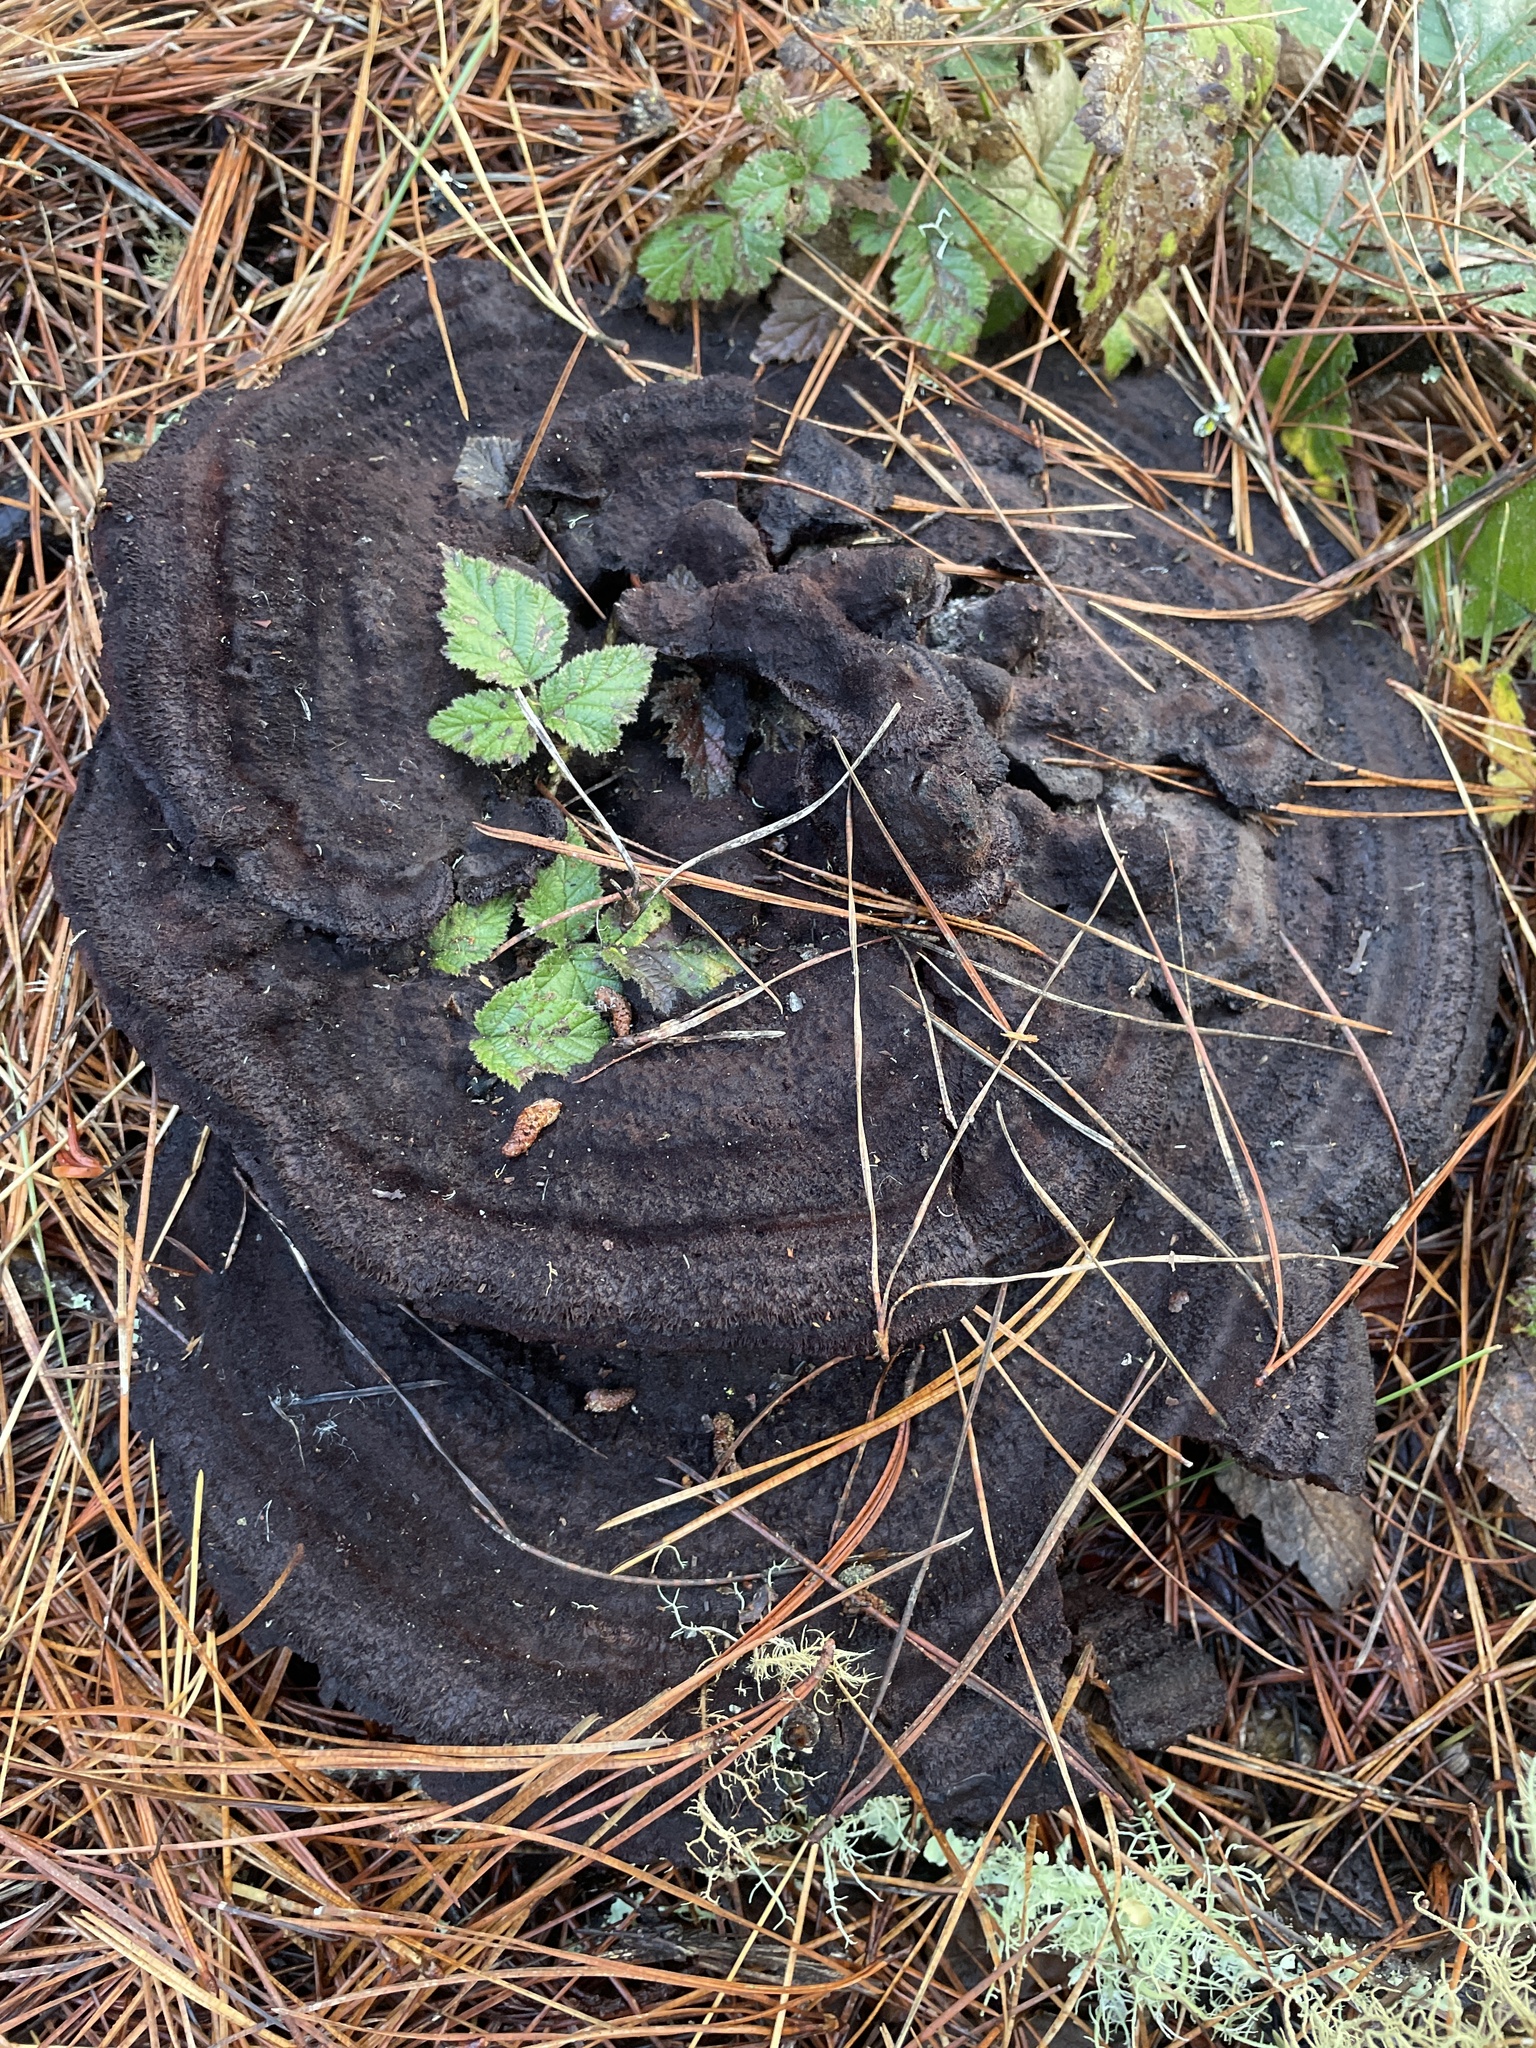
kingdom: Fungi
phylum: Basidiomycota
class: Agaricomycetes
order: Polyporales
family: Laetiporaceae
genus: Phaeolus
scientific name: Phaeolus schweinitzii
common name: Dyer's mazegill
